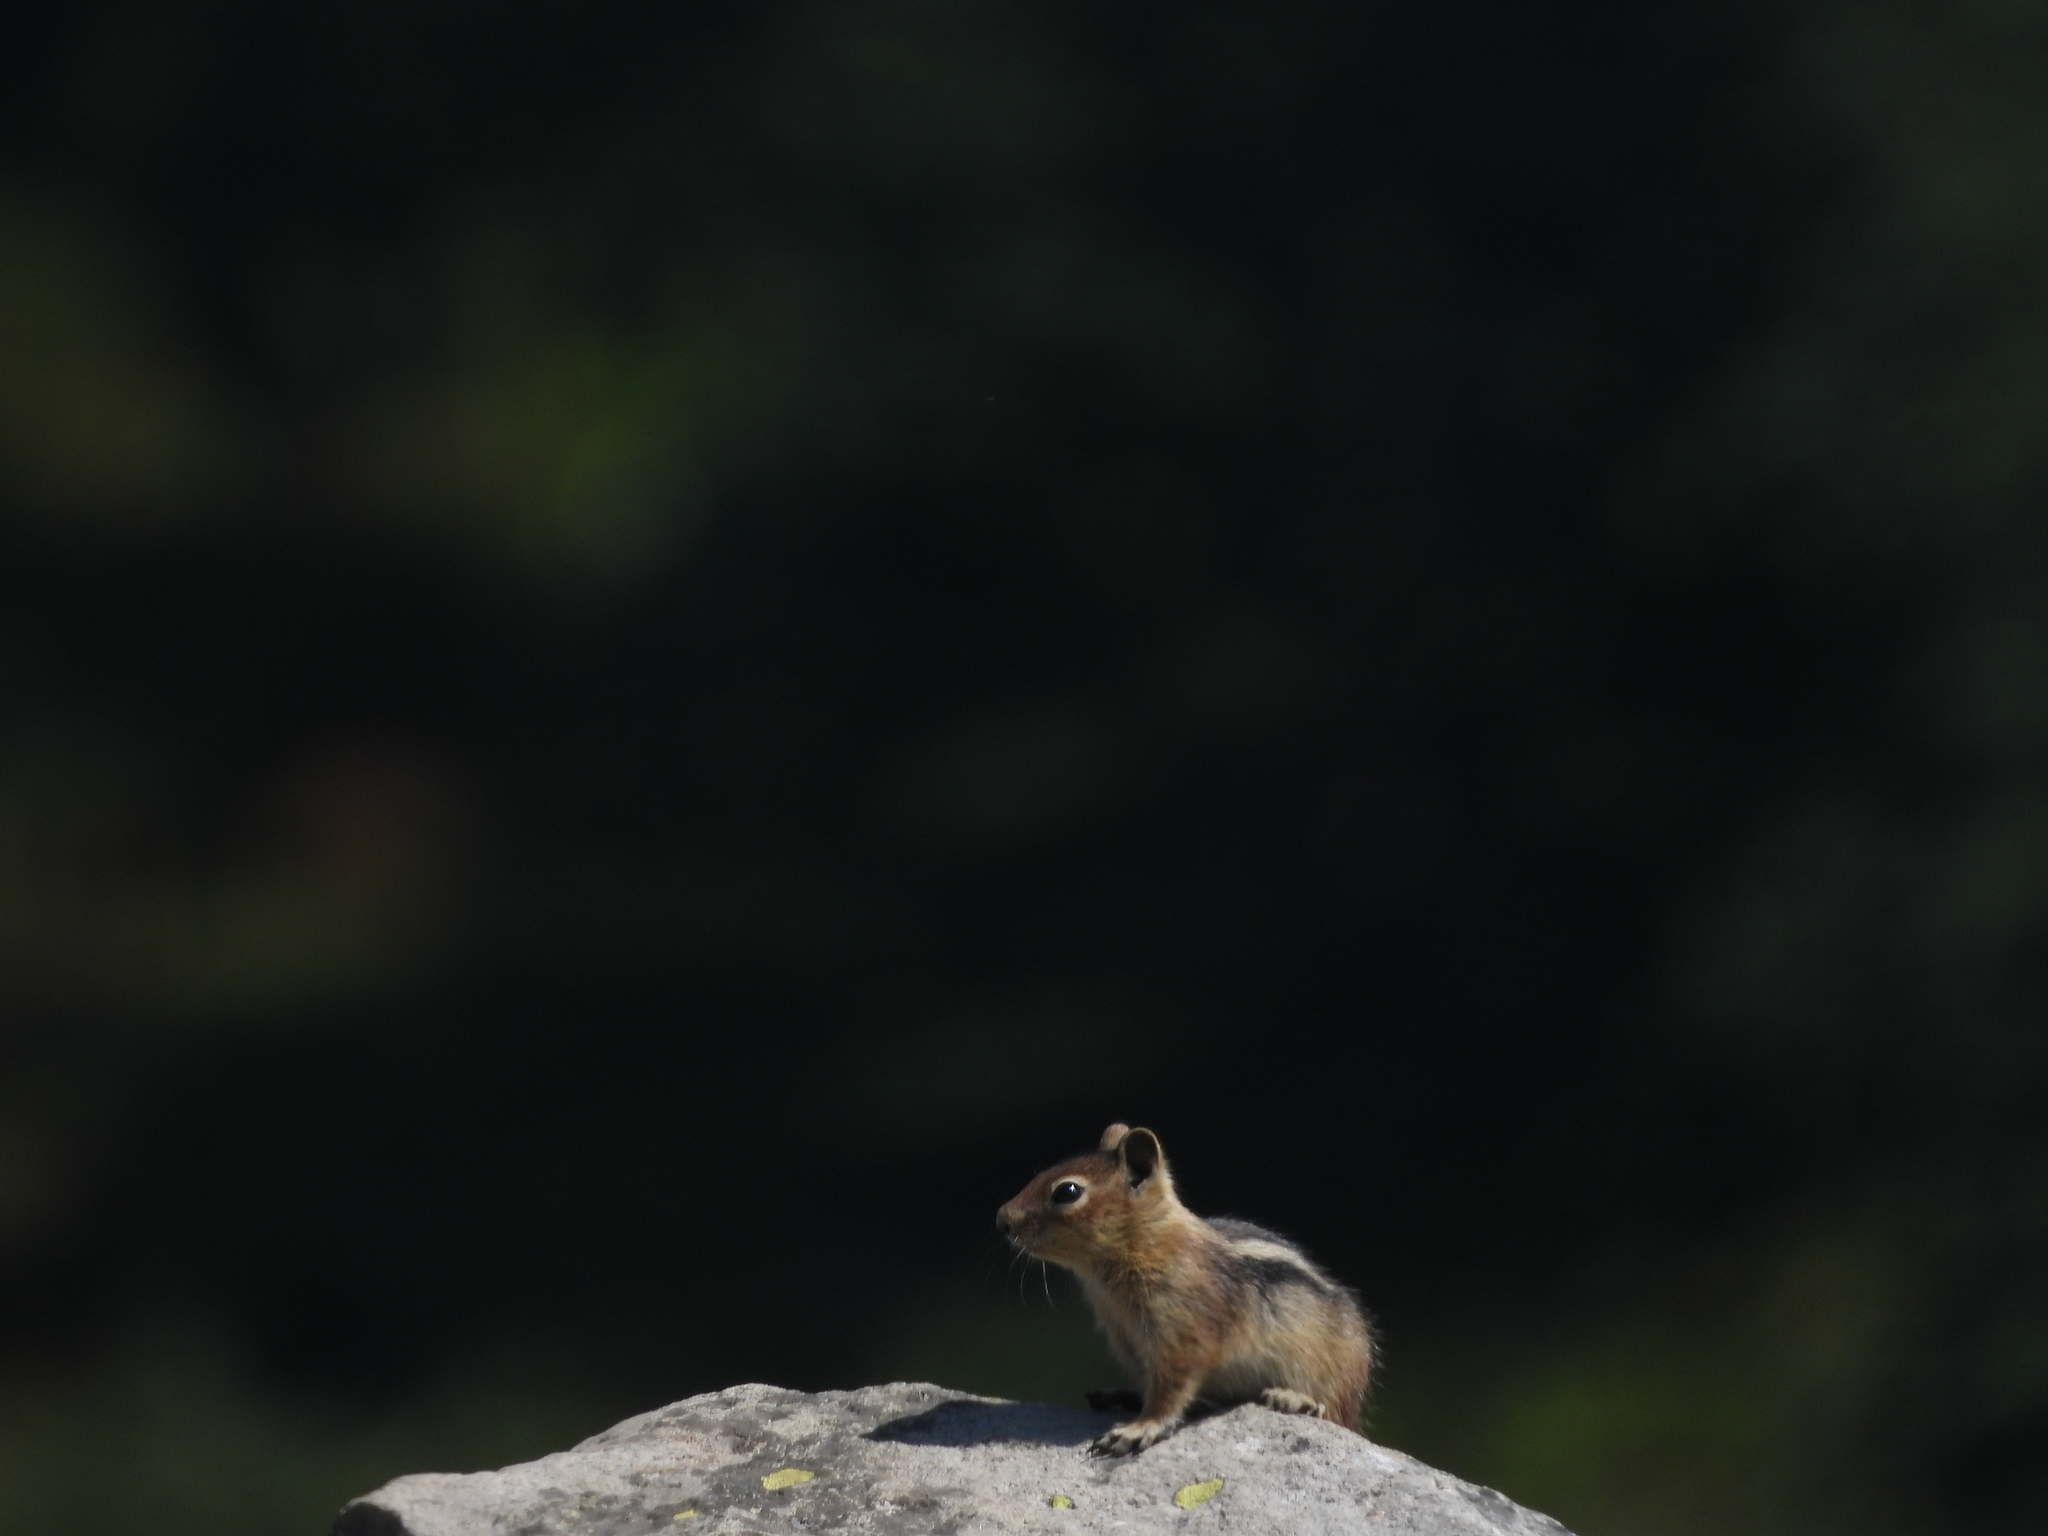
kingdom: Animalia
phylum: Chordata
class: Mammalia
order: Rodentia
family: Sciuridae
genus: Callospermophilus
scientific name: Callospermophilus saturatus
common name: Cascade golden-mantled ground squirrel
